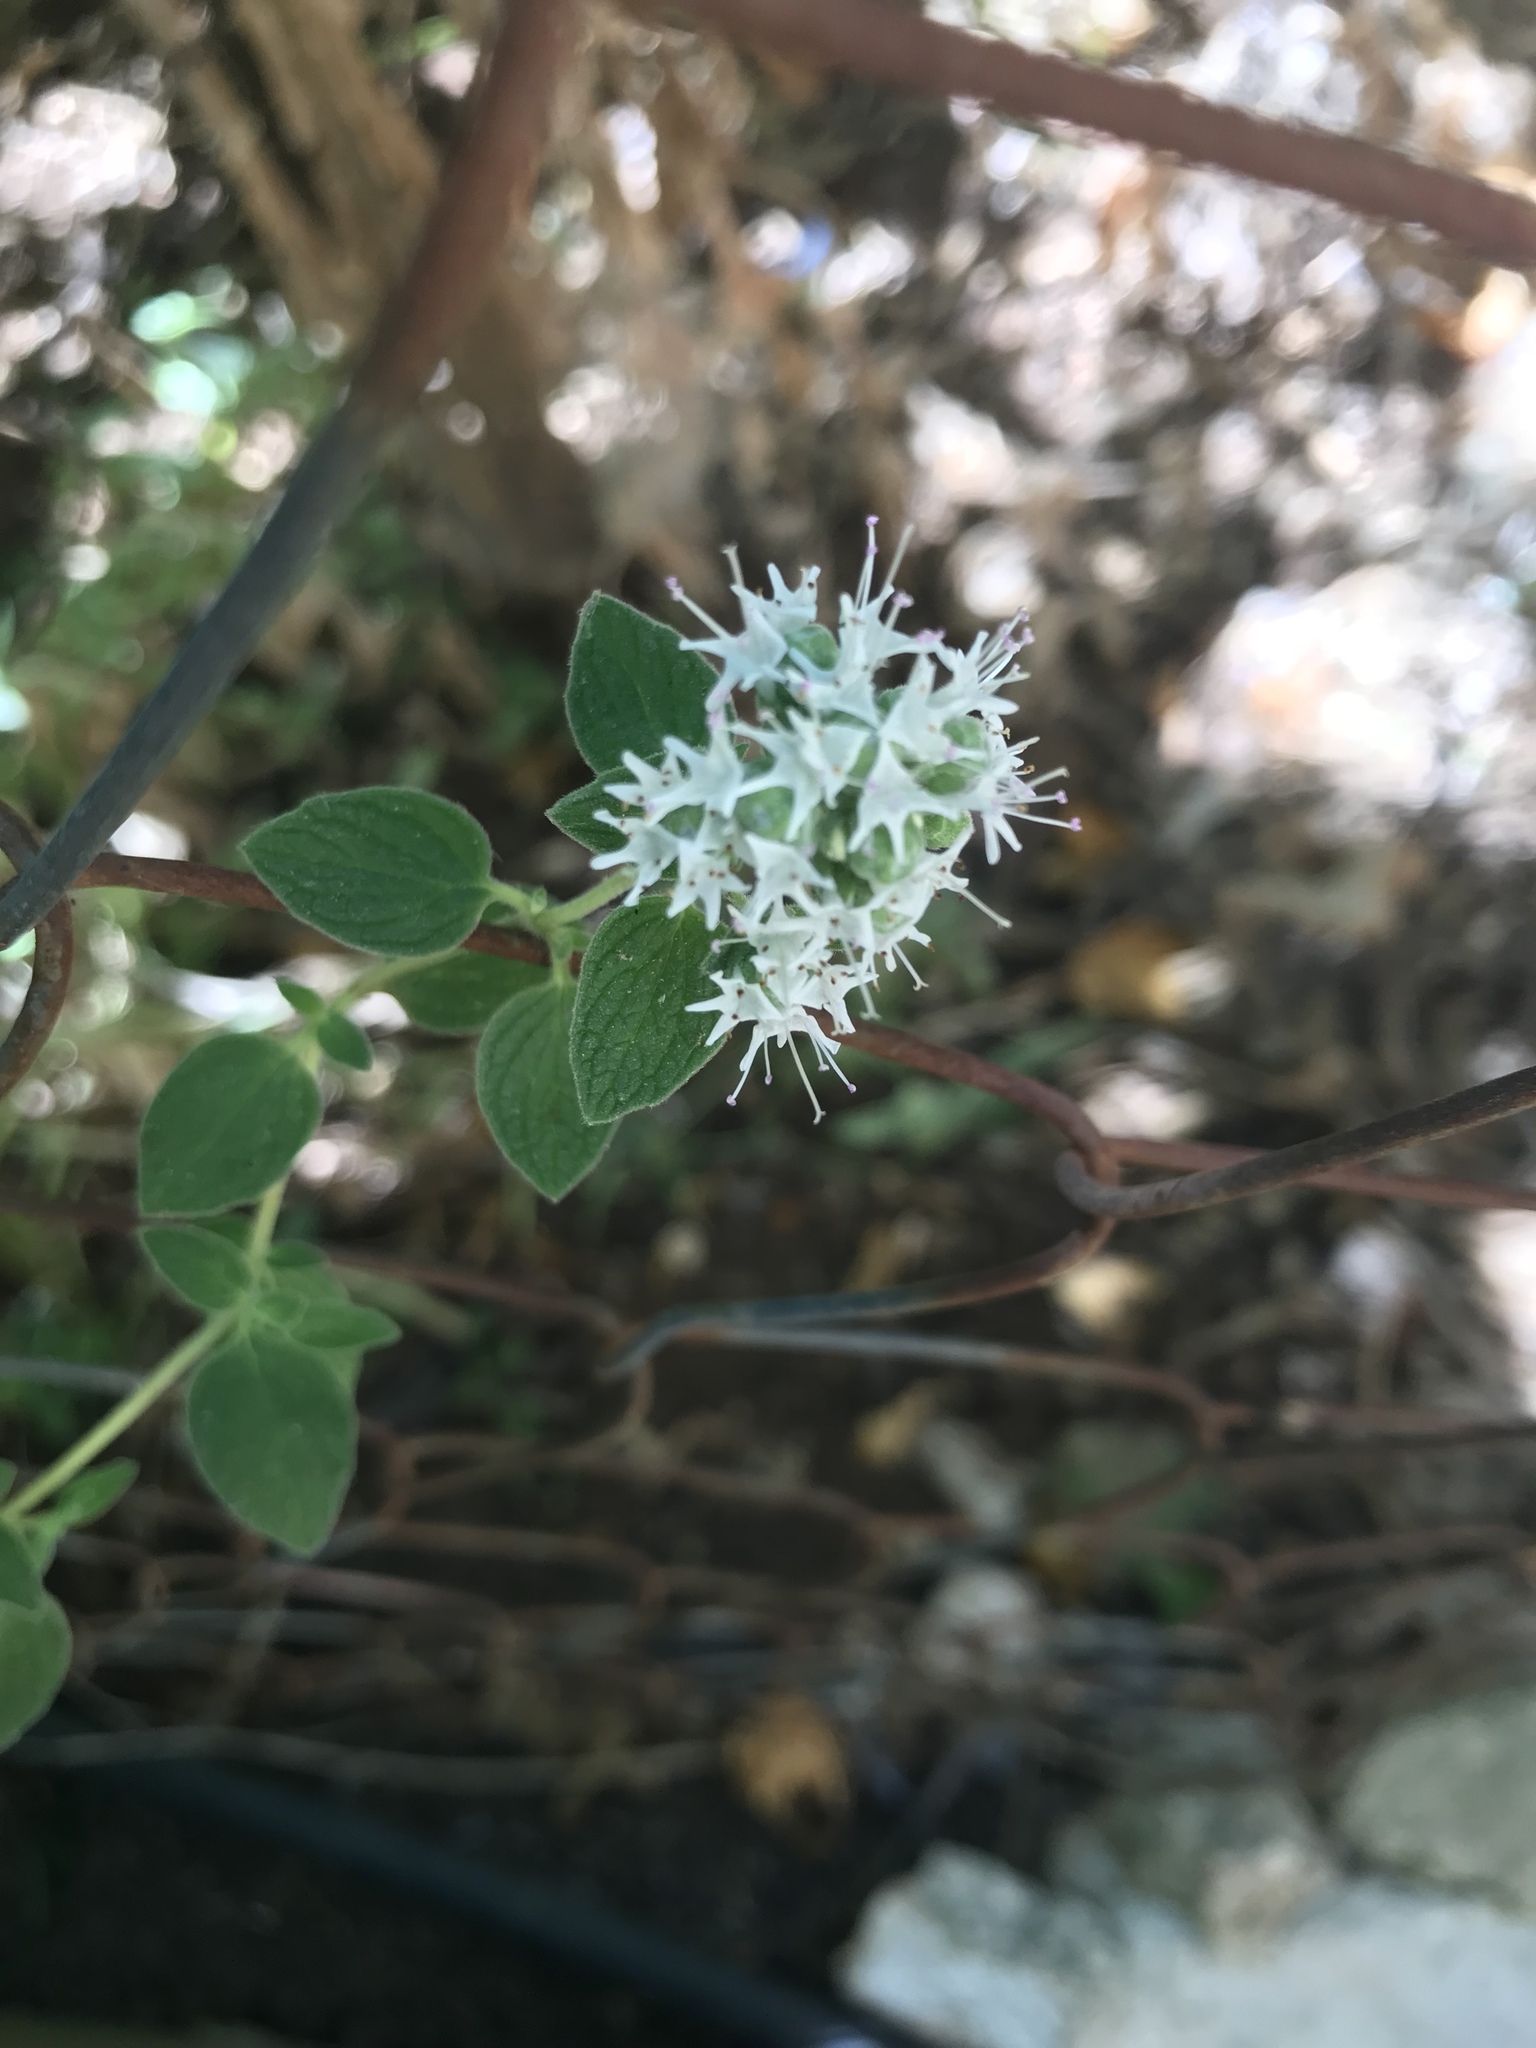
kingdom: Plantae
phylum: Tracheophyta
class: Magnoliopsida
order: Lamiales
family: Lamiaceae
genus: Origanum
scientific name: Origanum syriacum
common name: Biblical-hyssop
